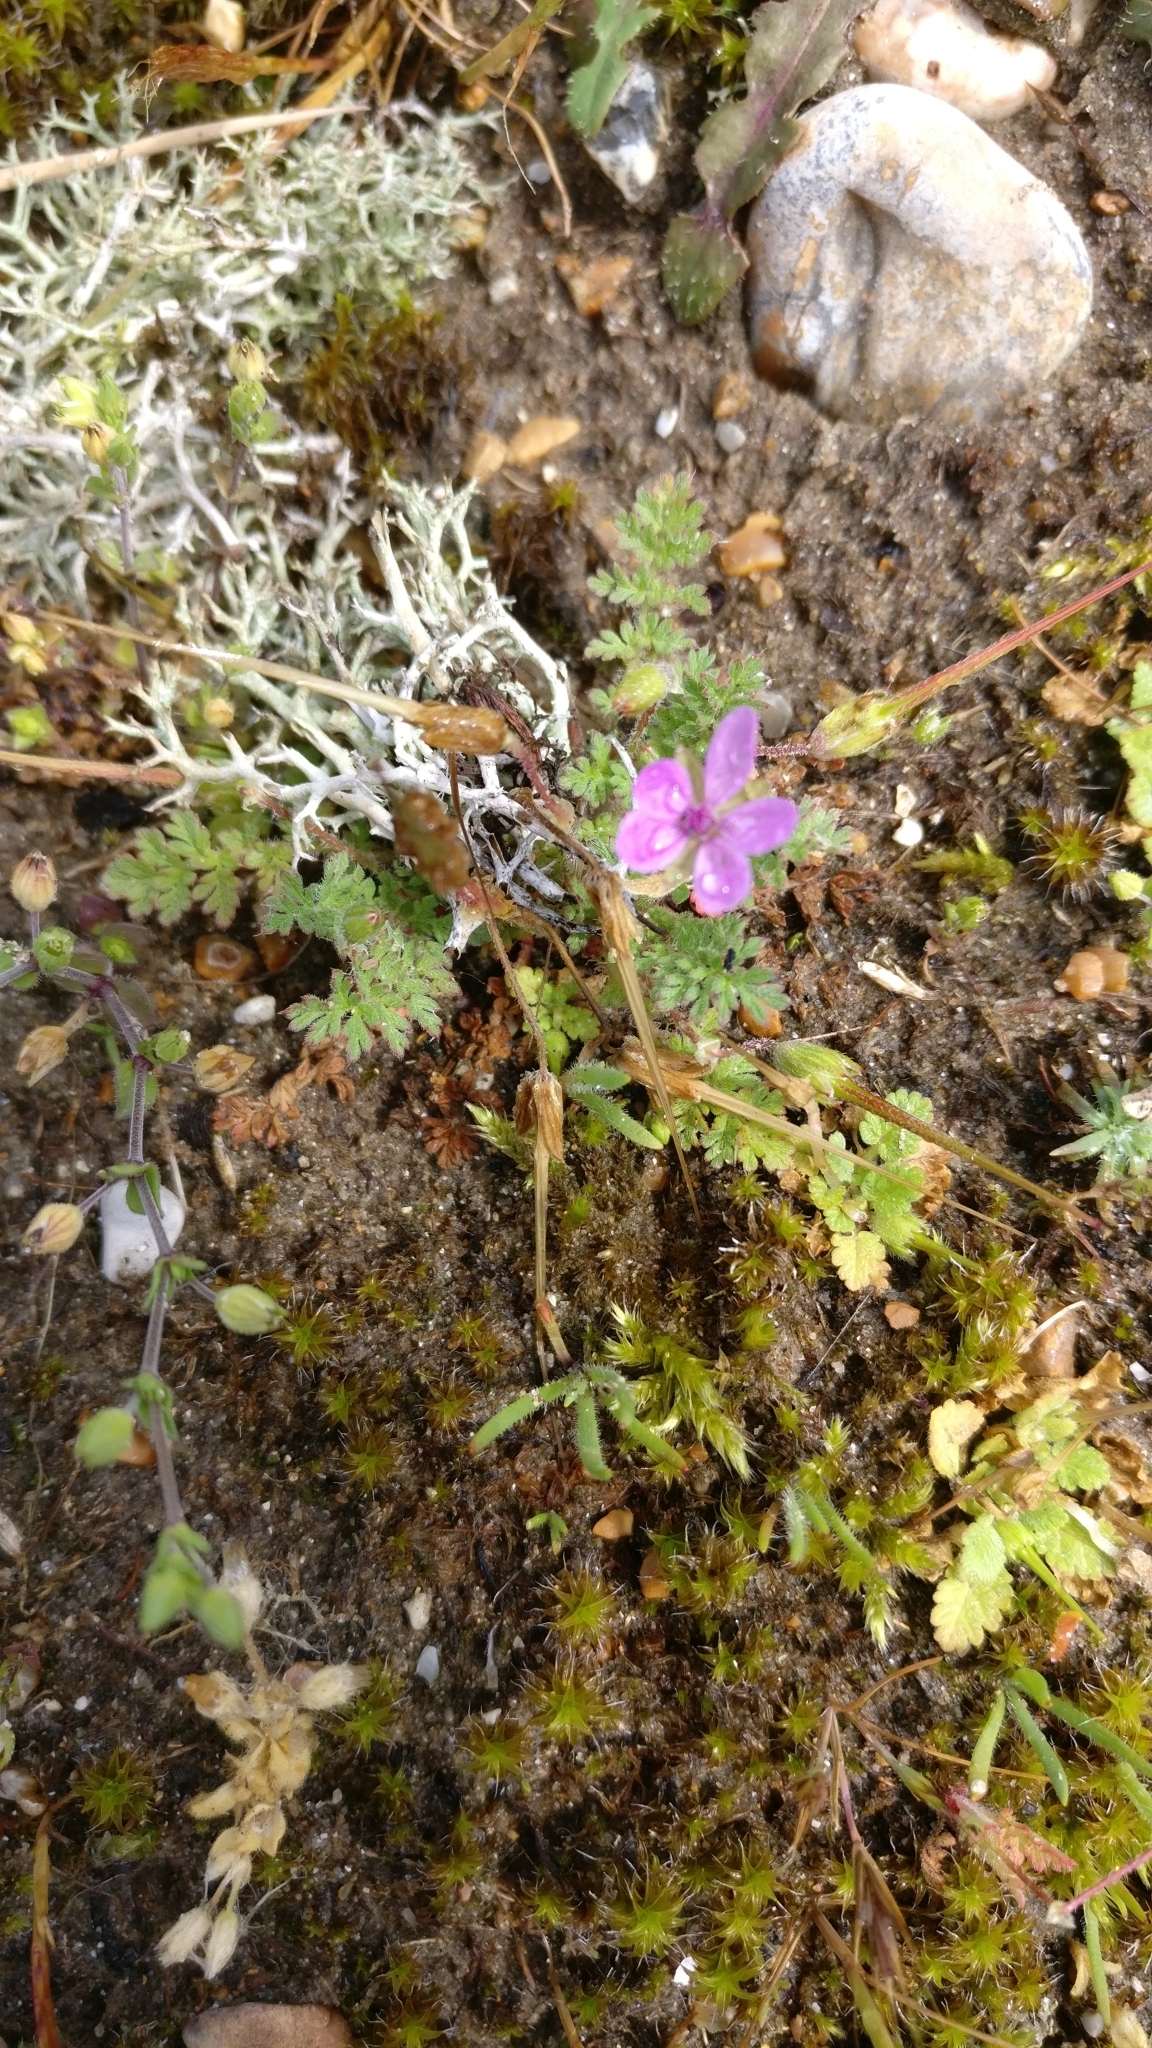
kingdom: Plantae
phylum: Tracheophyta
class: Magnoliopsida
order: Geraniales
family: Geraniaceae
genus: Erodium
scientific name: Erodium cicutarium
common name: Common stork's-bill
